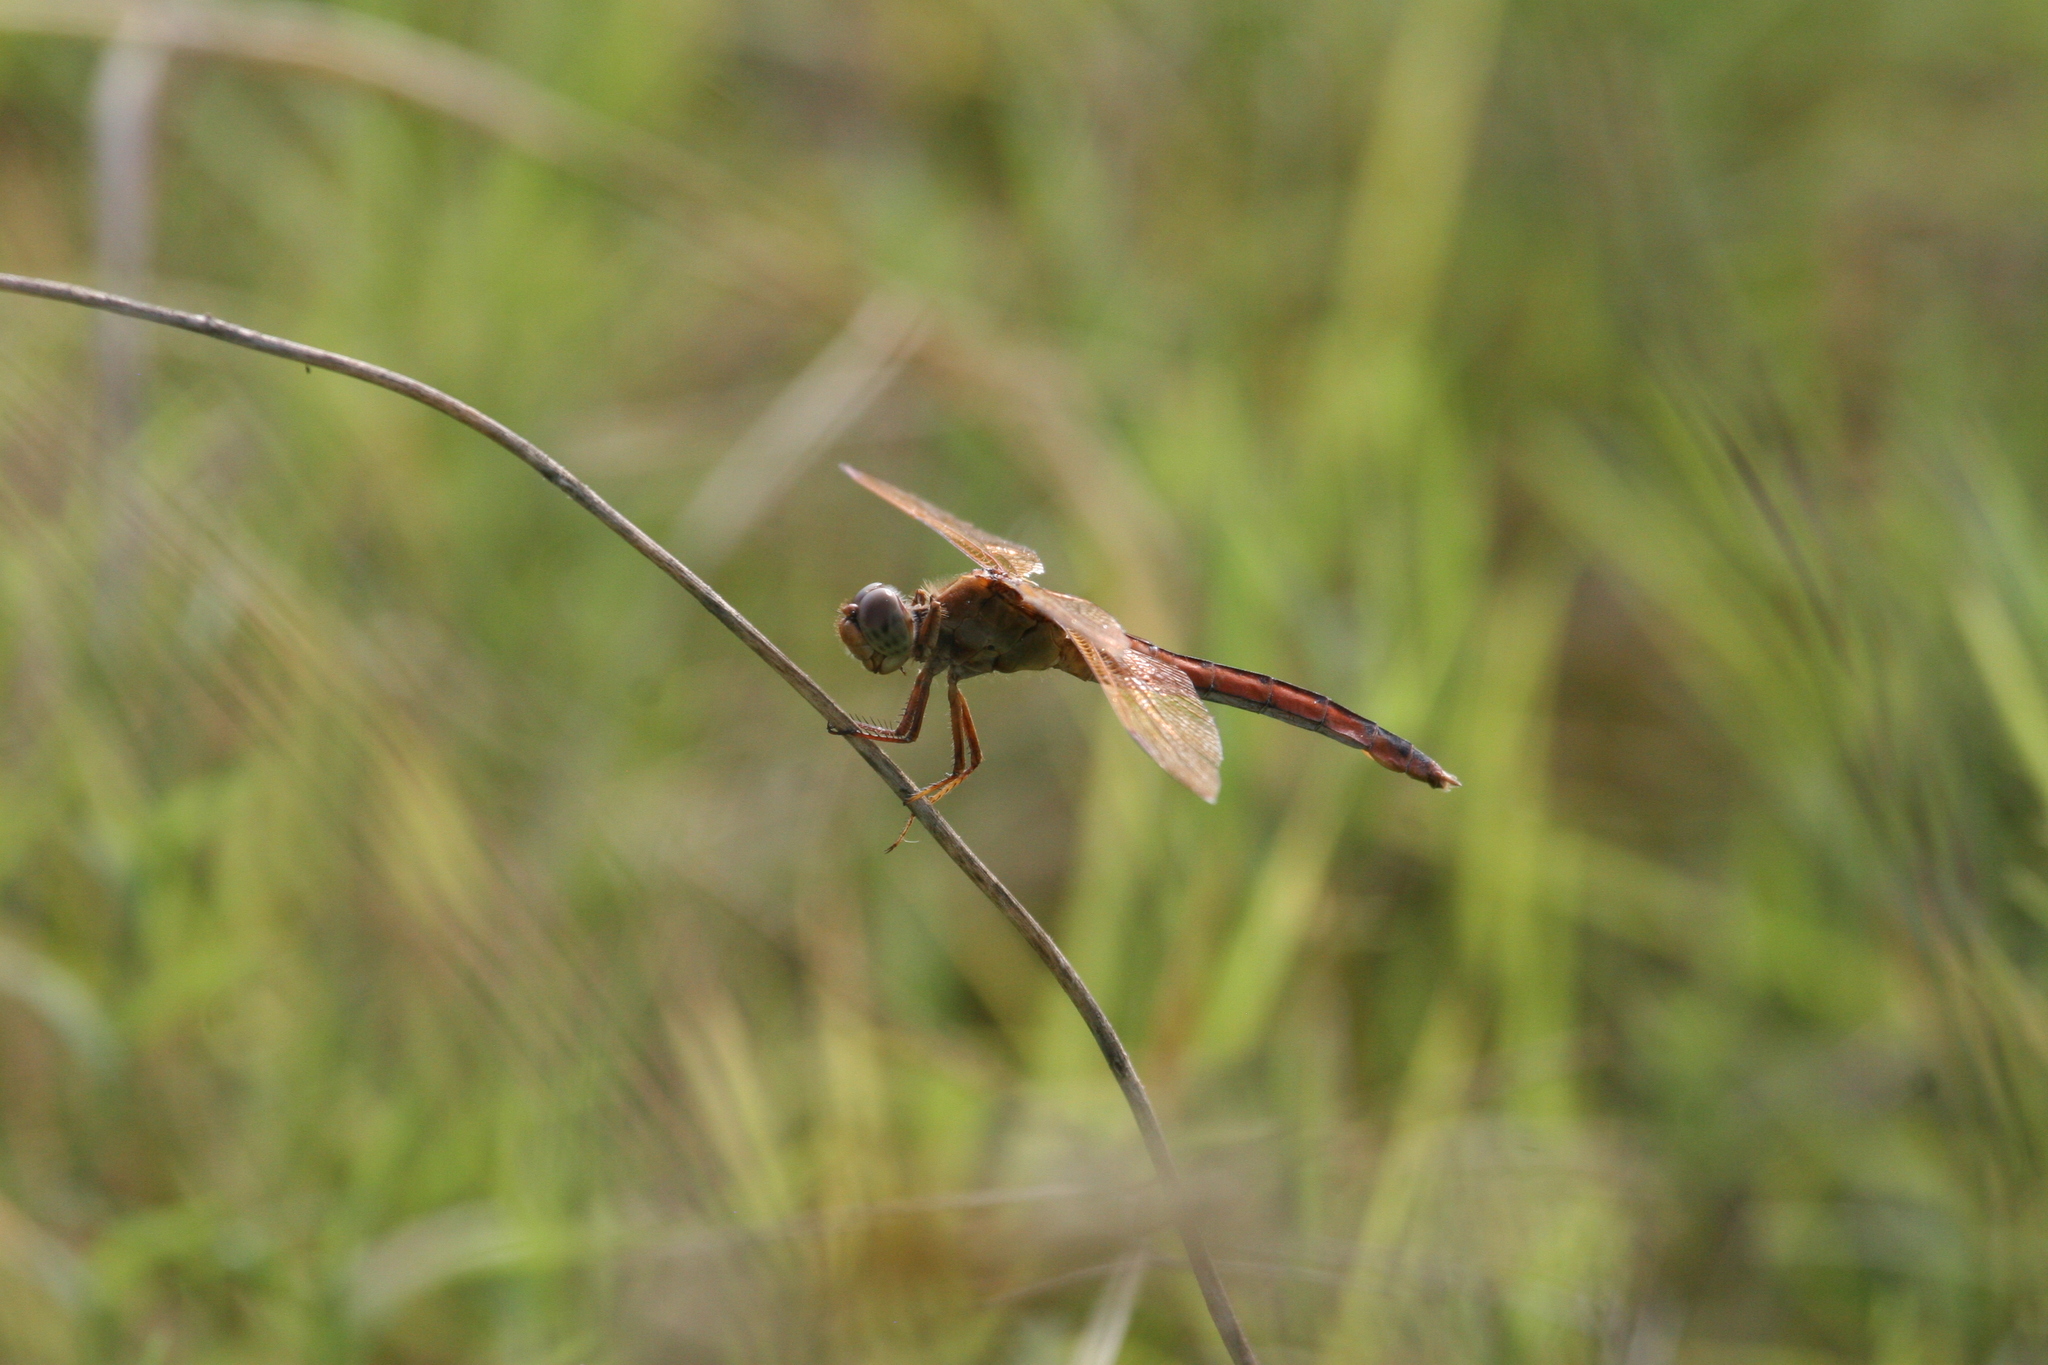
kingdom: Animalia
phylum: Arthropoda
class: Insecta
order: Odonata
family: Libellulidae
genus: Libellula
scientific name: Libellula needhami
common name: Needham's skimmer
